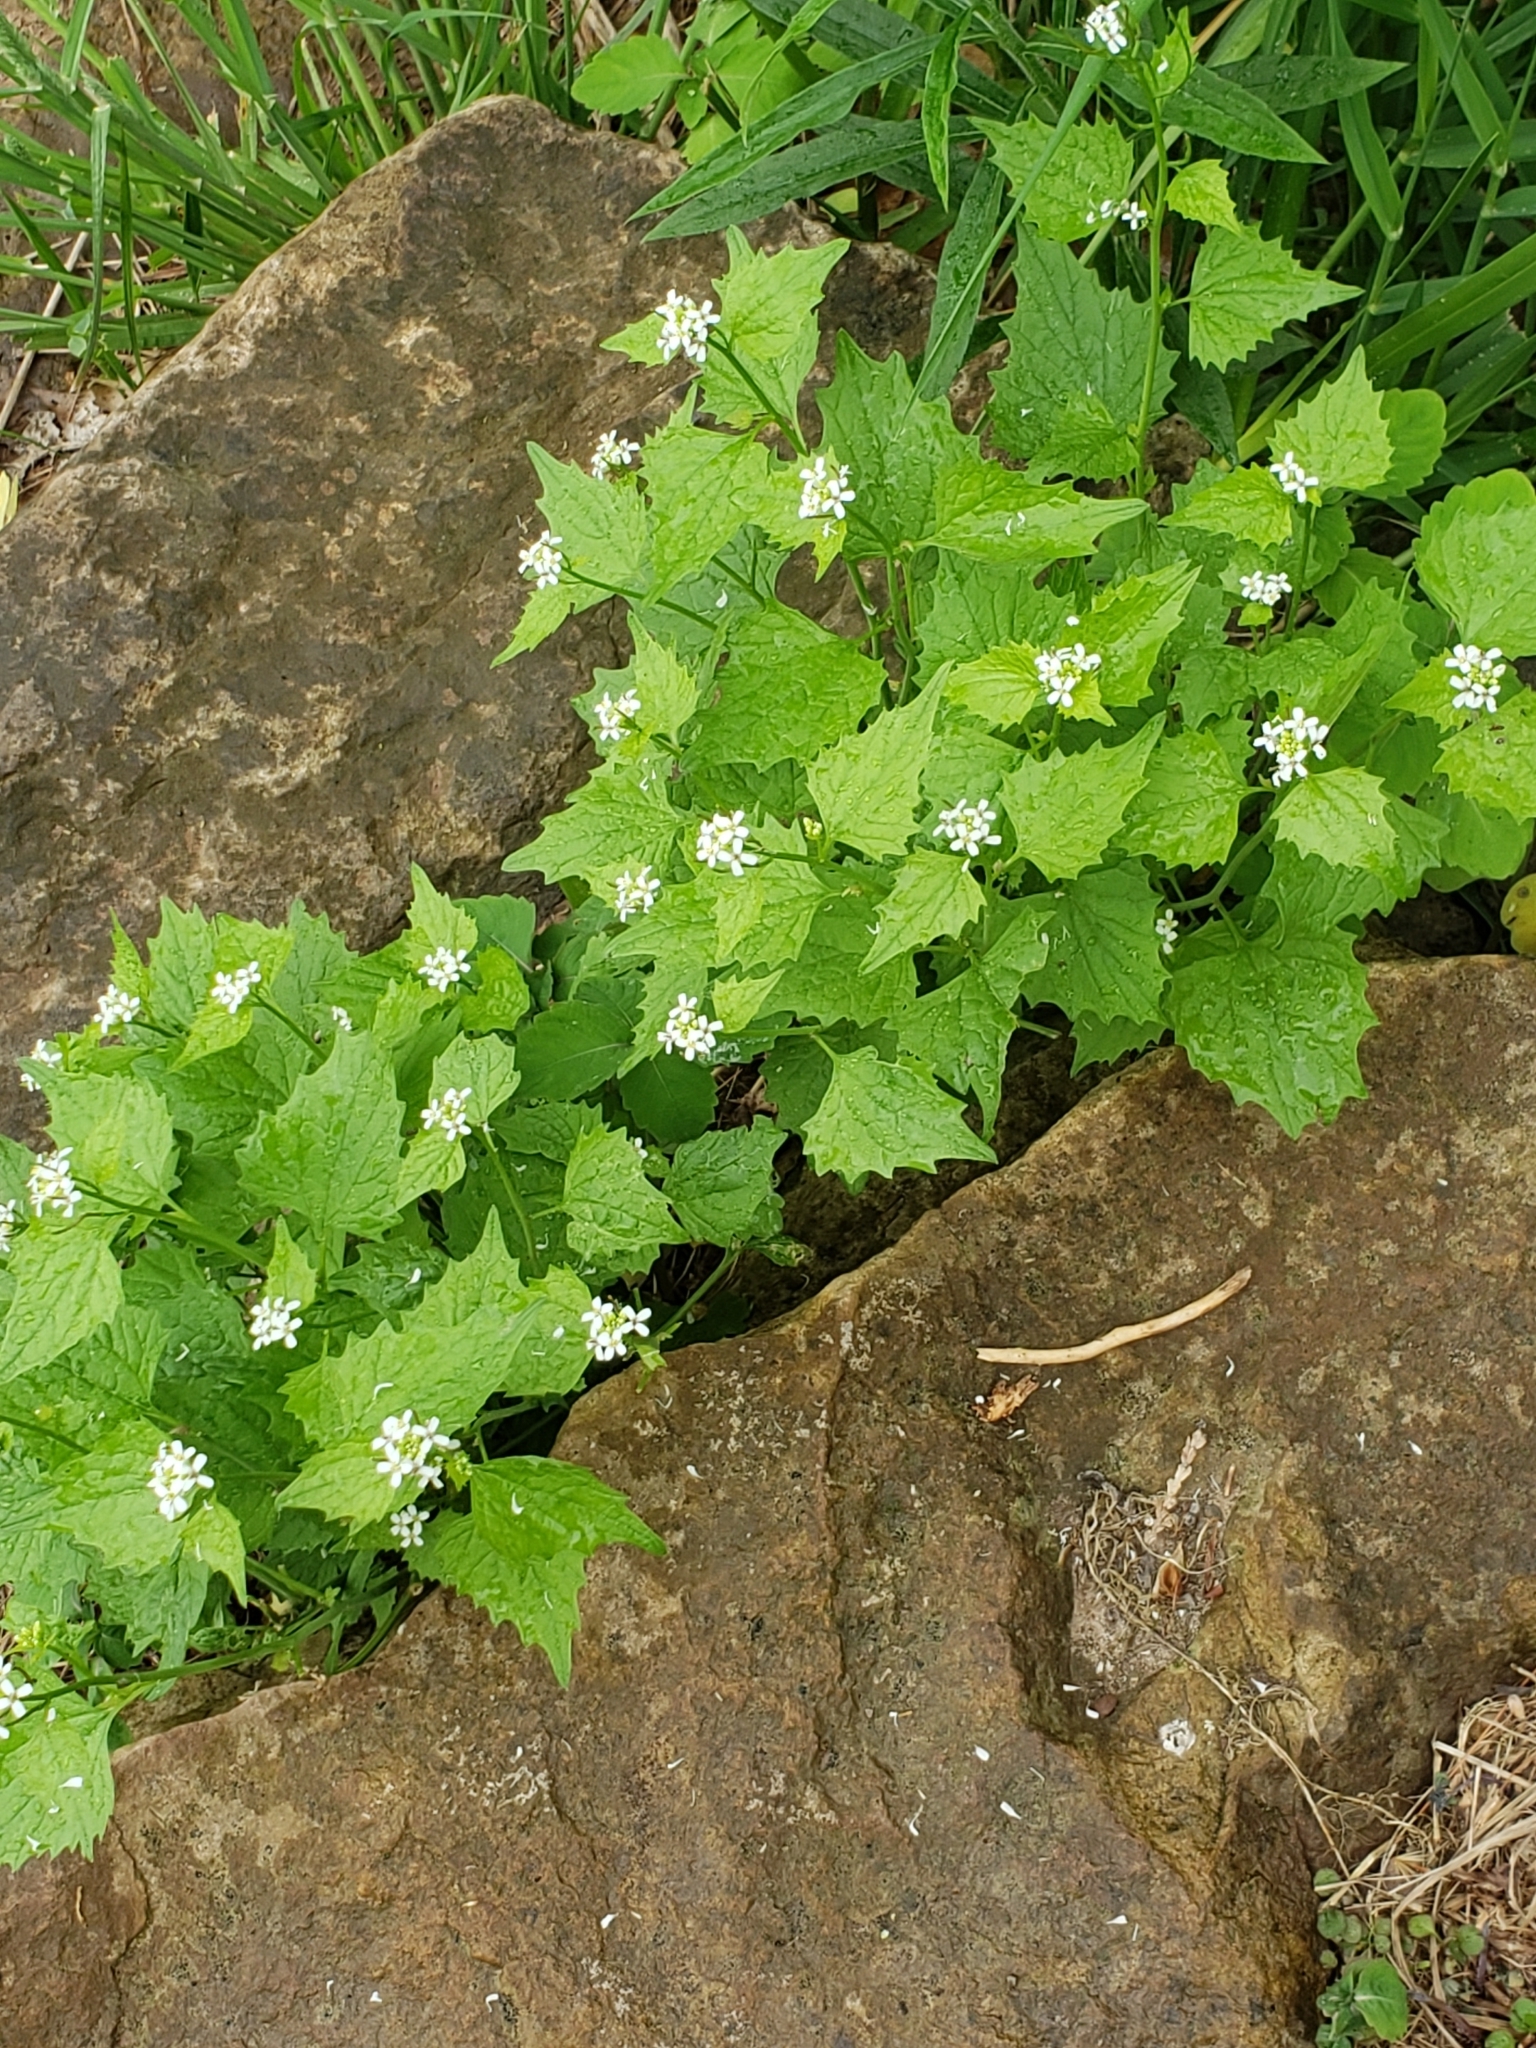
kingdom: Plantae
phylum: Tracheophyta
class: Magnoliopsida
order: Brassicales
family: Brassicaceae
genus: Alliaria
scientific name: Alliaria petiolata
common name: Garlic mustard
